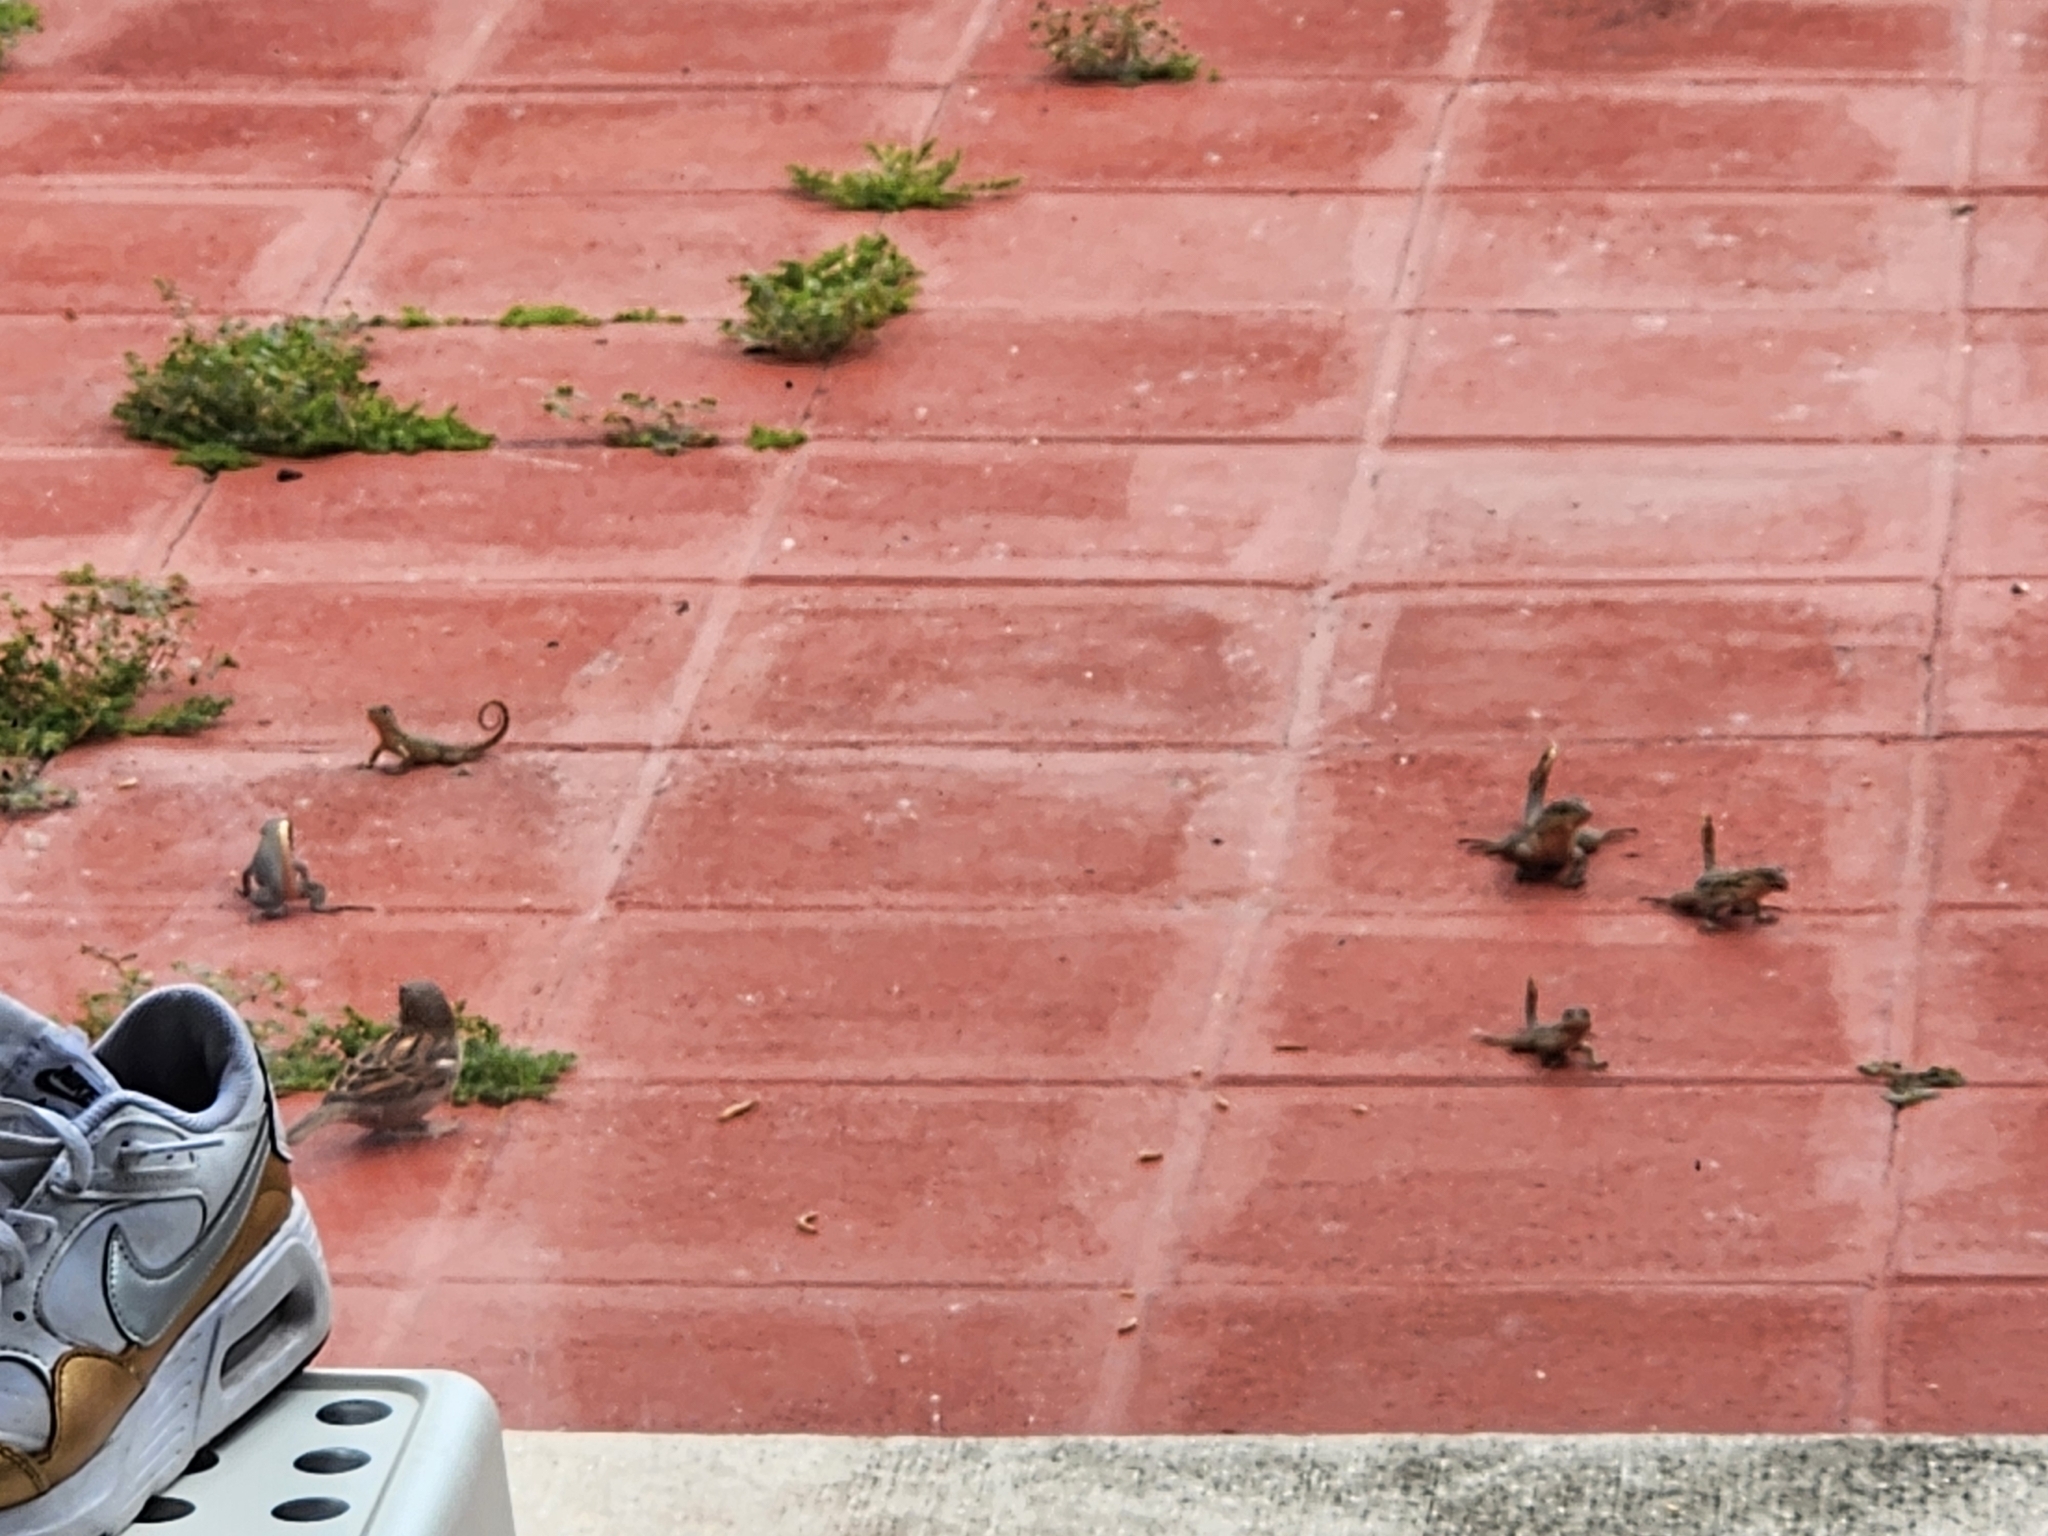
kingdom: Animalia
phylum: Chordata
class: Squamata
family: Leiocephalidae
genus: Leiocephalus
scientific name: Leiocephalus carinatus
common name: Northern curly-tailed lizard
